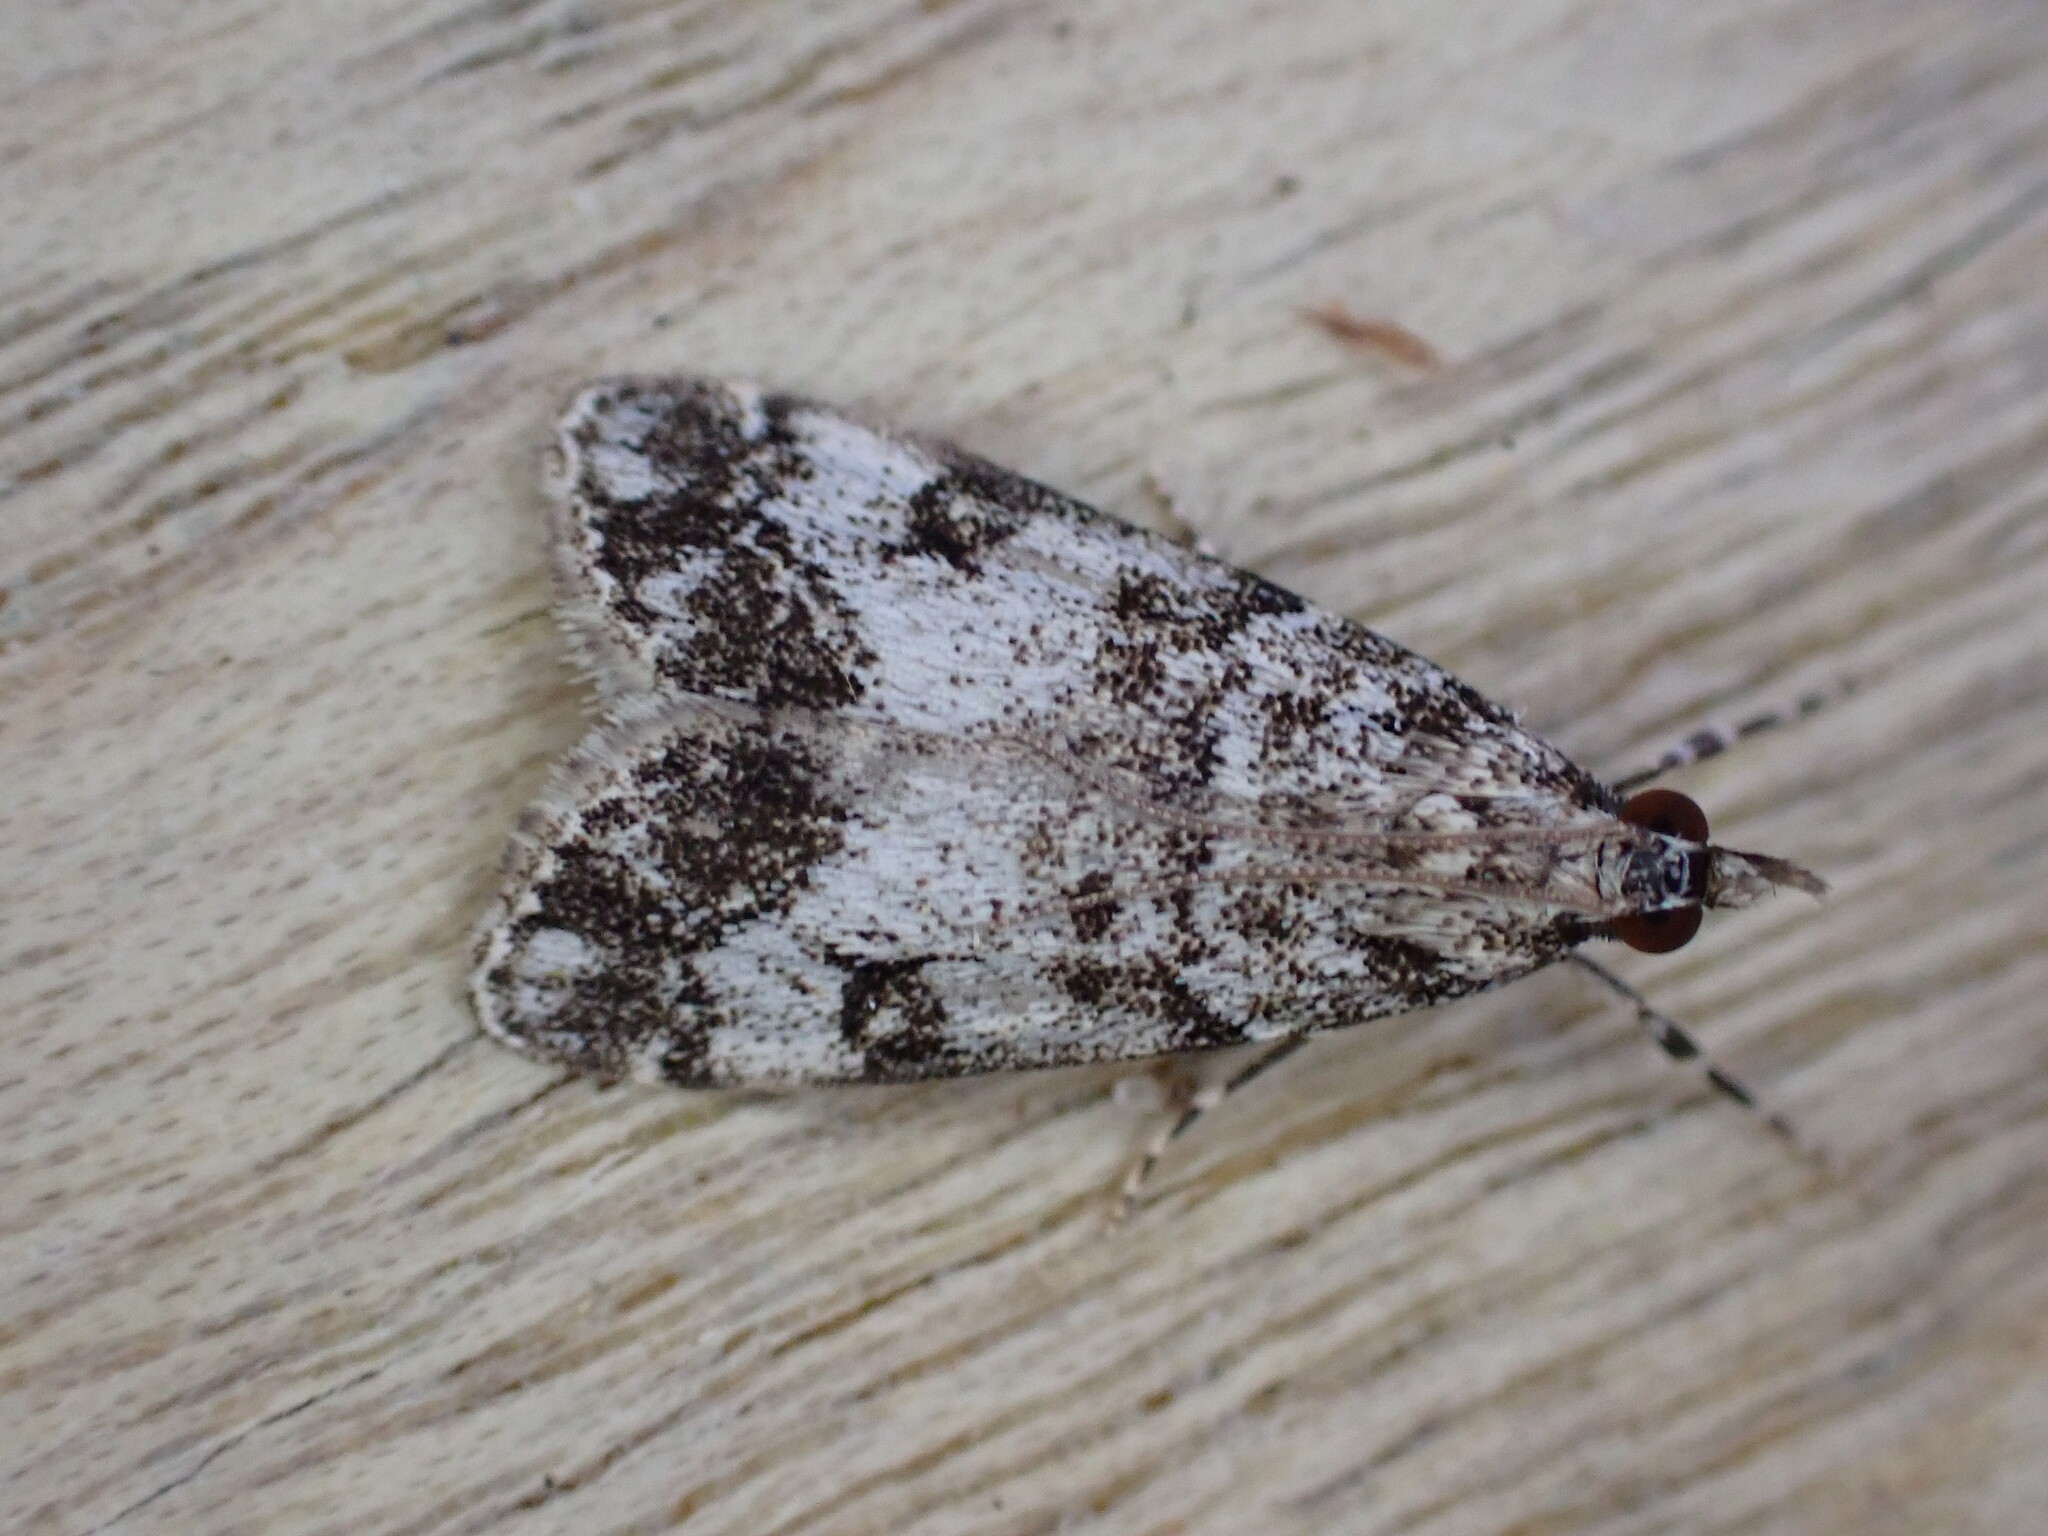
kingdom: Animalia
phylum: Arthropoda
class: Insecta
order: Lepidoptera
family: Crambidae
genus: Eudonia
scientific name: Eudonia lacustrata
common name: Little grey
